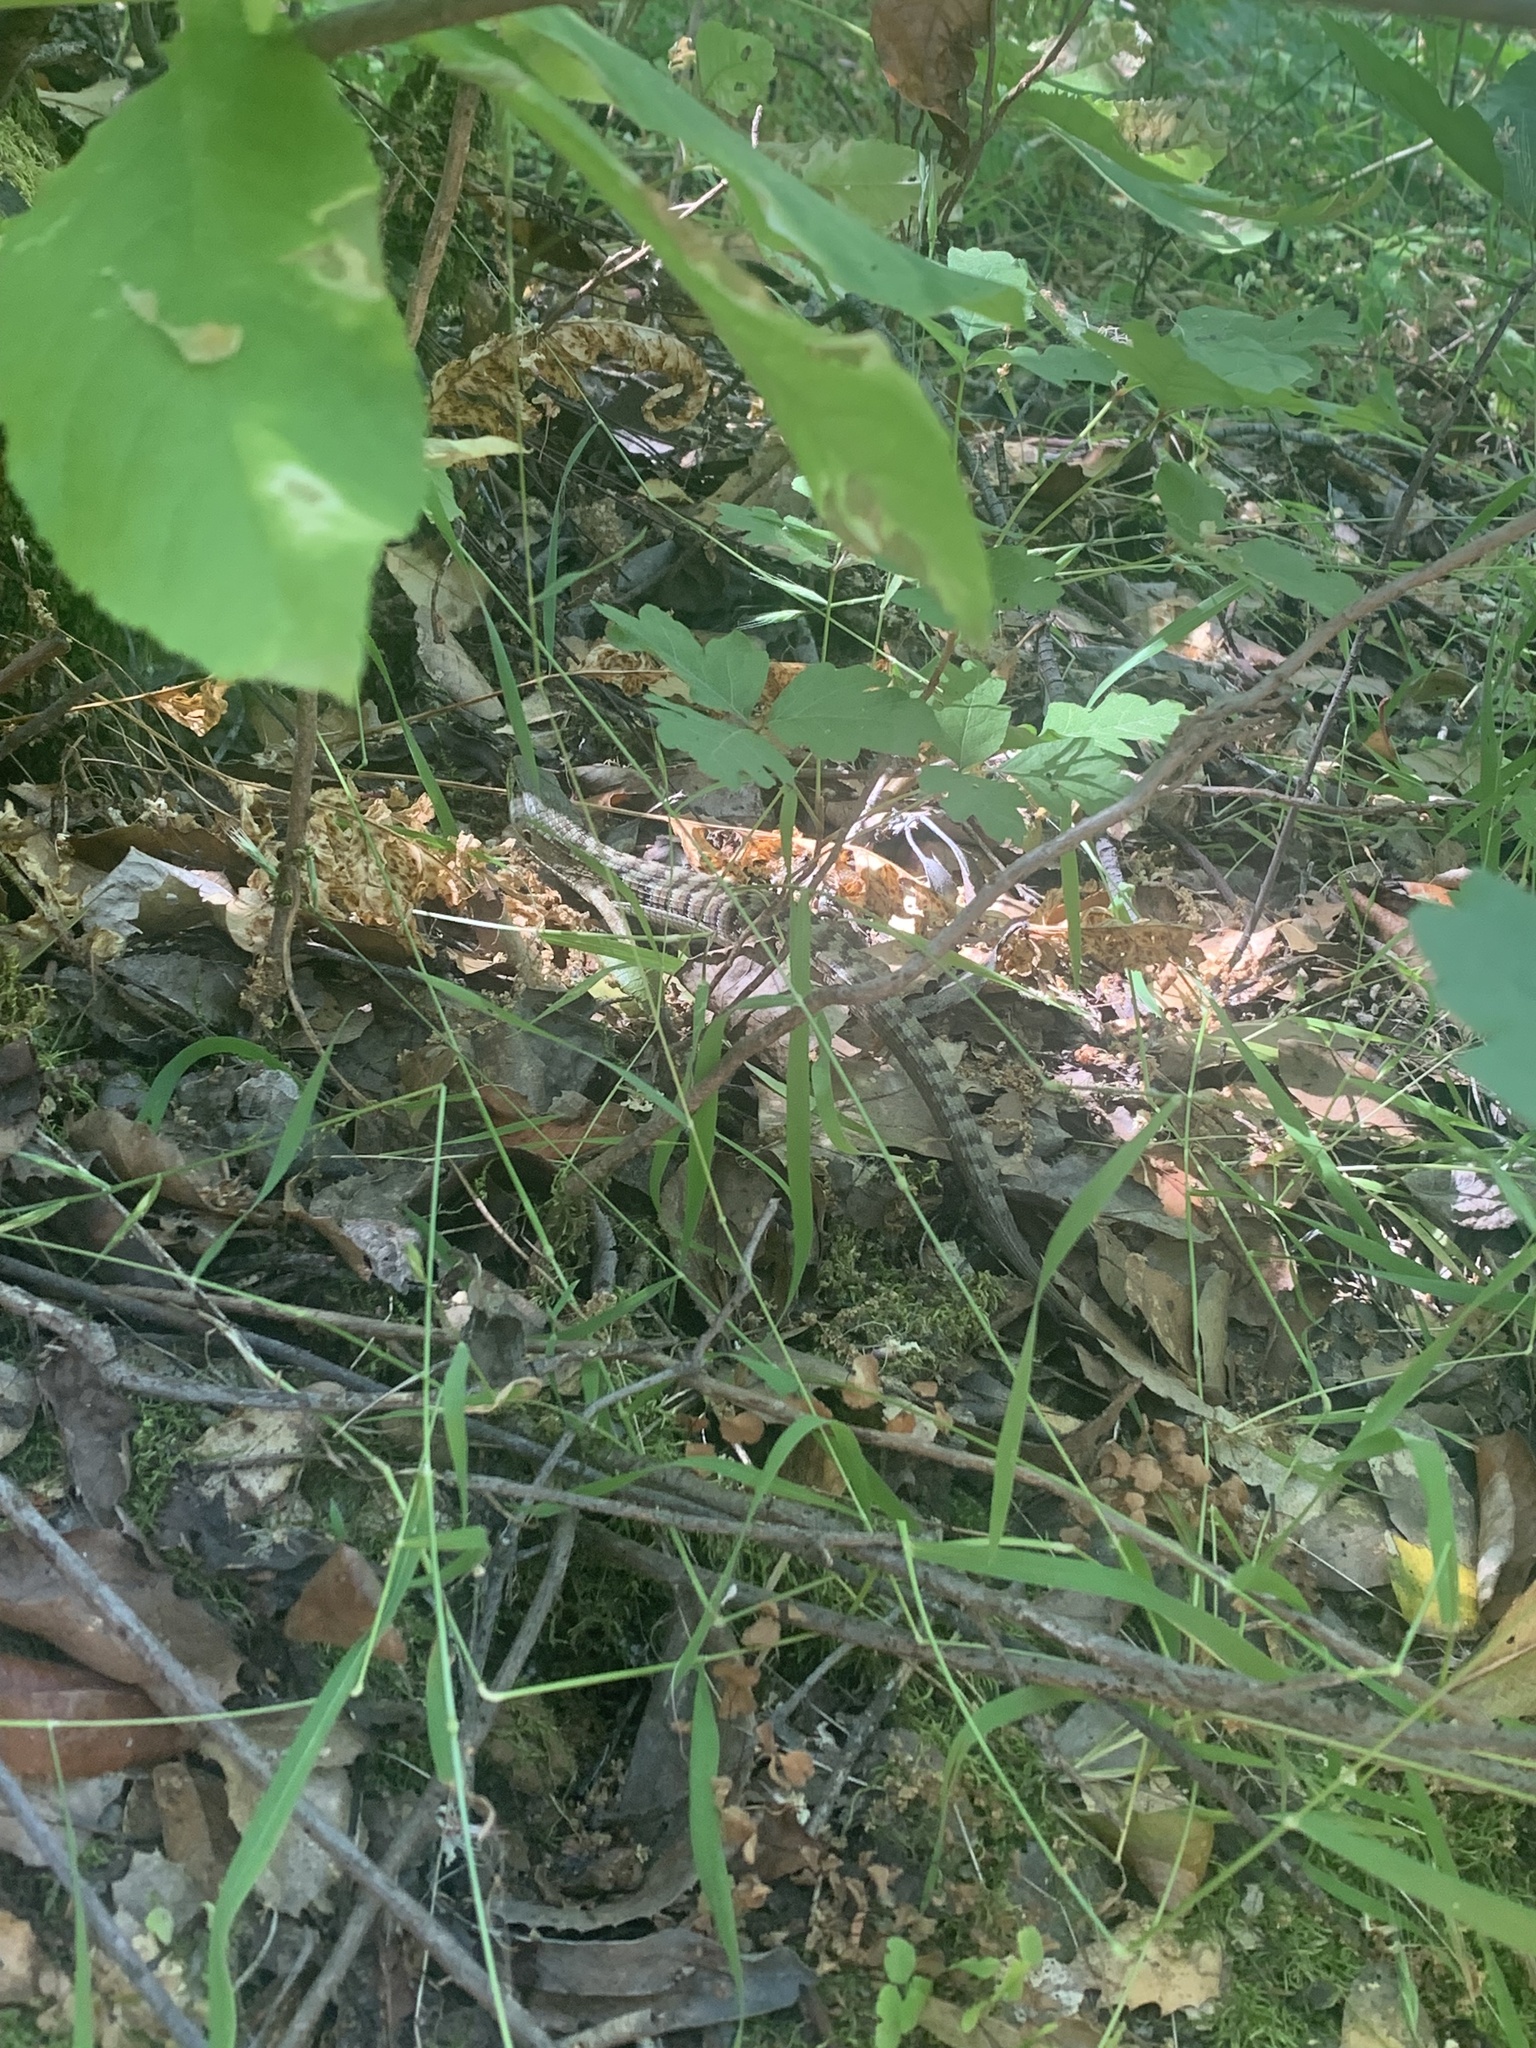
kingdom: Animalia
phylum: Chordata
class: Squamata
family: Anguidae
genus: Elgaria
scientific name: Elgaria multicarinata
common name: Southern alligator lizard
